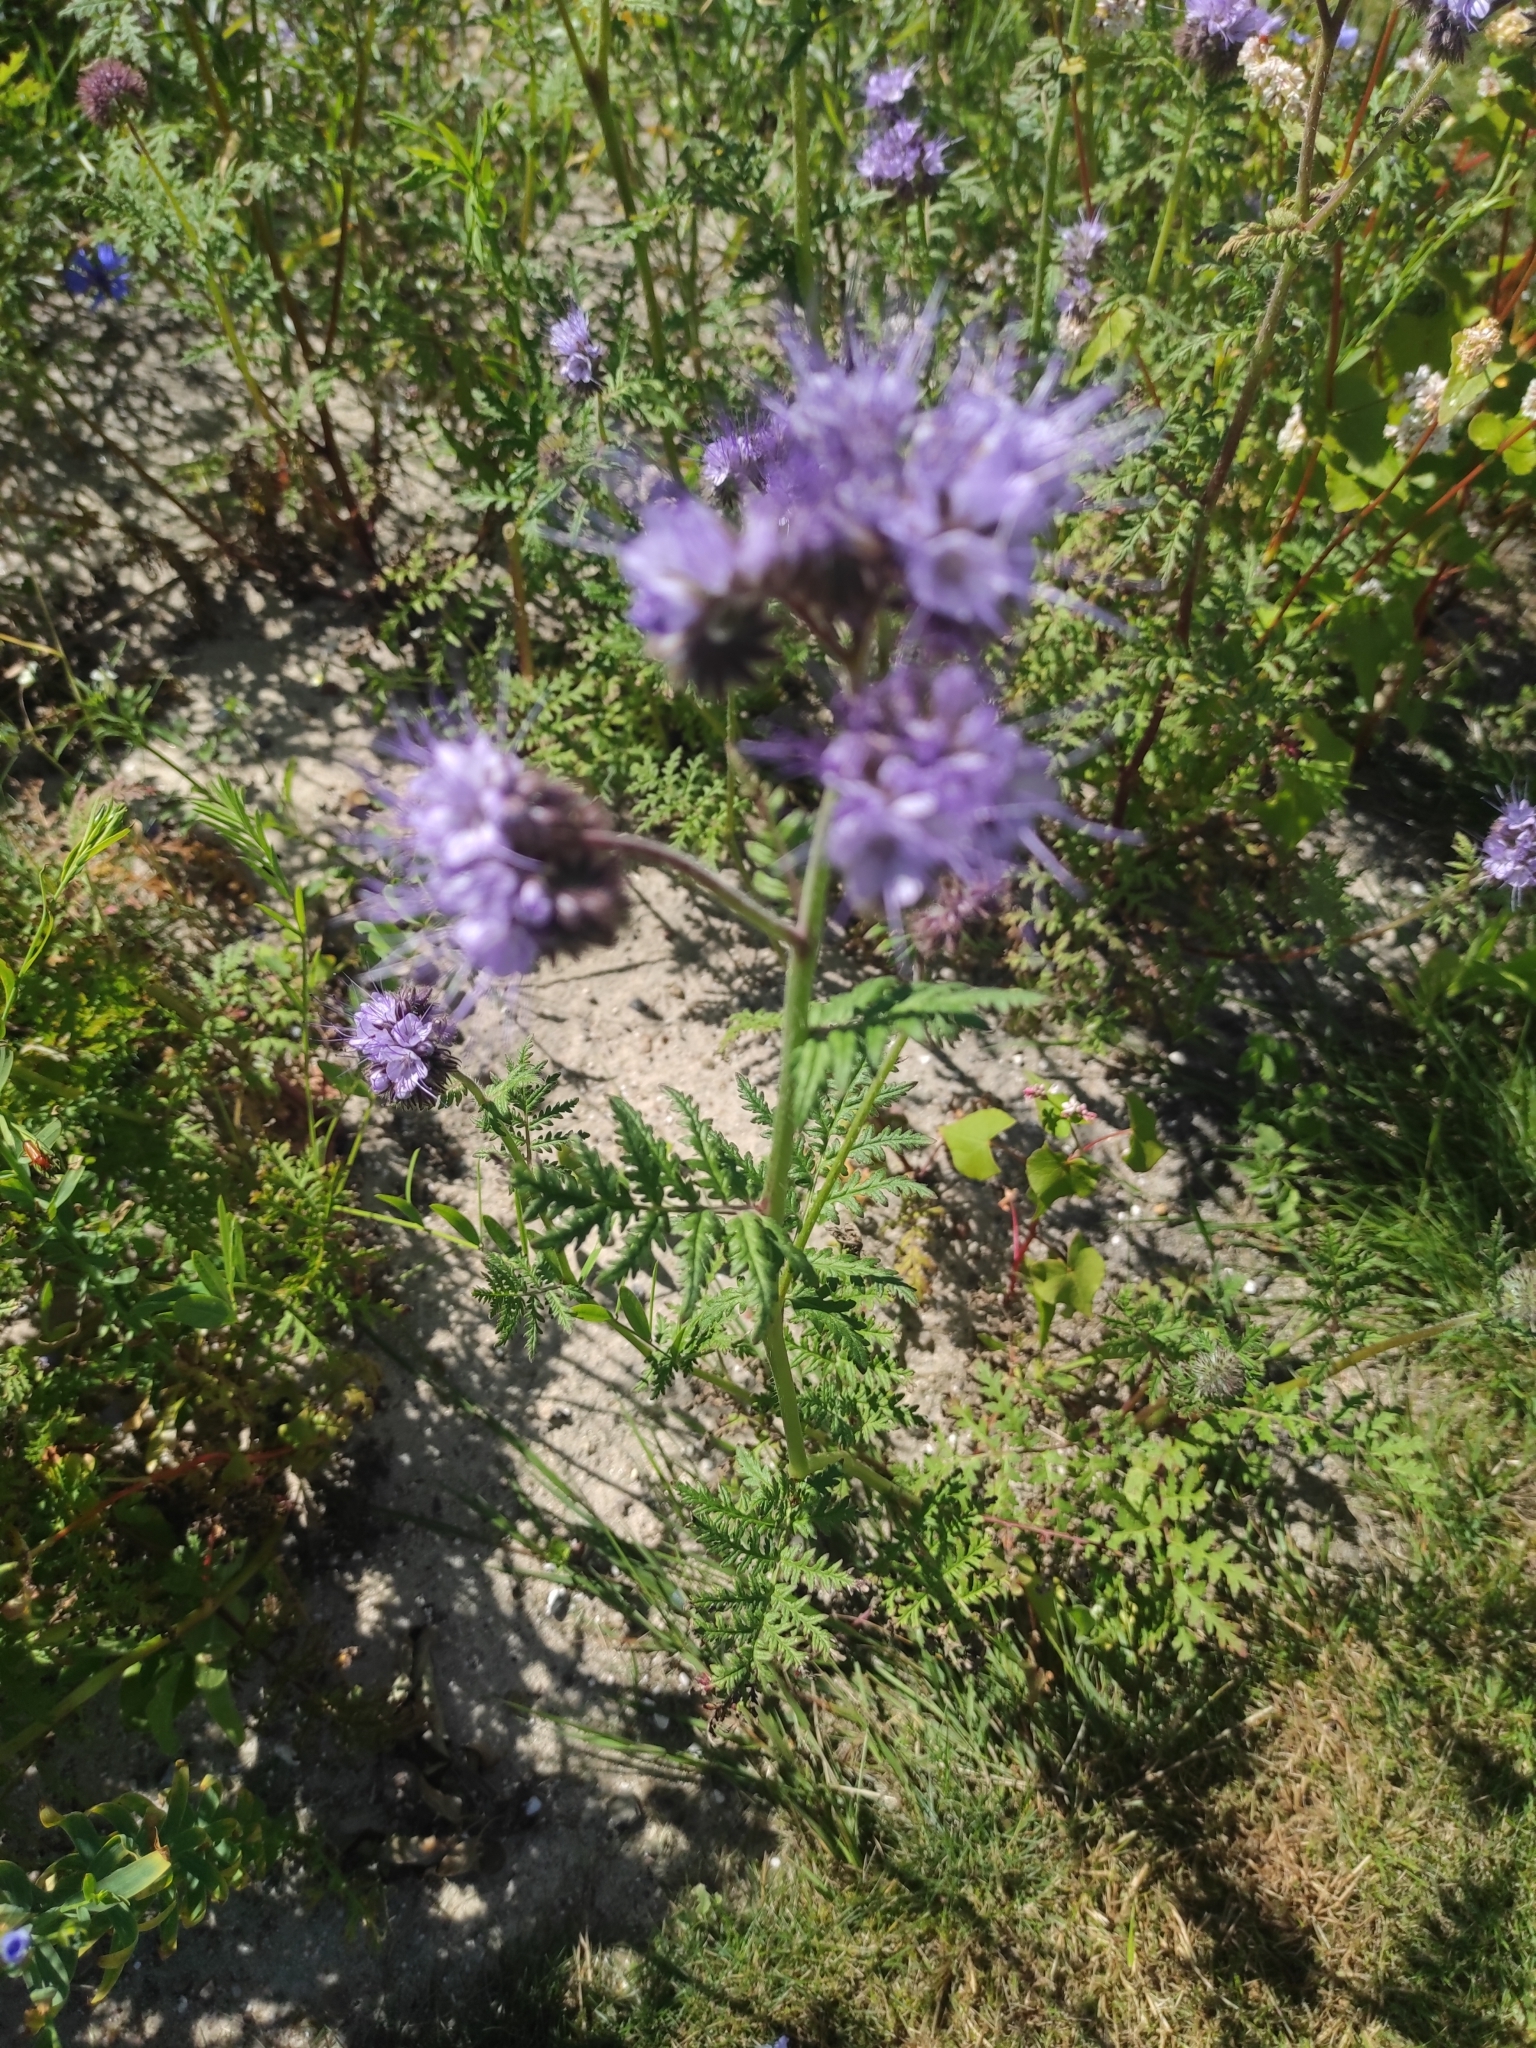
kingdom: Plantae
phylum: Tracheophyta
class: Magnoliopsida
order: Boraginales
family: Hydrophyllaceae
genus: Phacelia
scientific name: Phacelia tanacetifolia
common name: Phacelia
